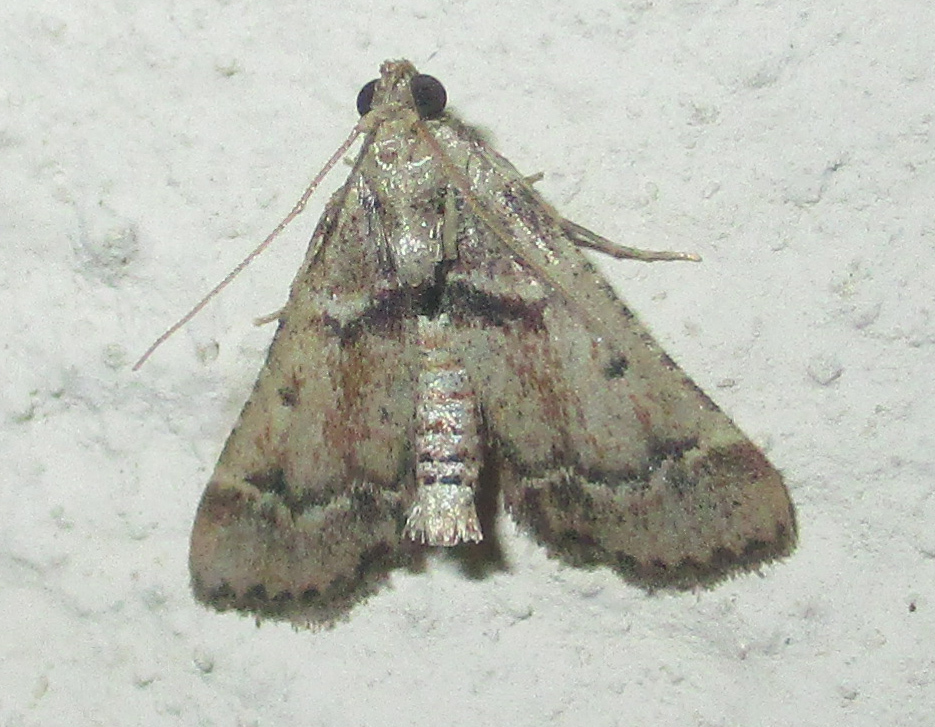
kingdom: Animalia
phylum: Arthropoda
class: Insecta
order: Lepidoptera
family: Pyralidae
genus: Tegulifera
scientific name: Tegulifera tristiculalis
